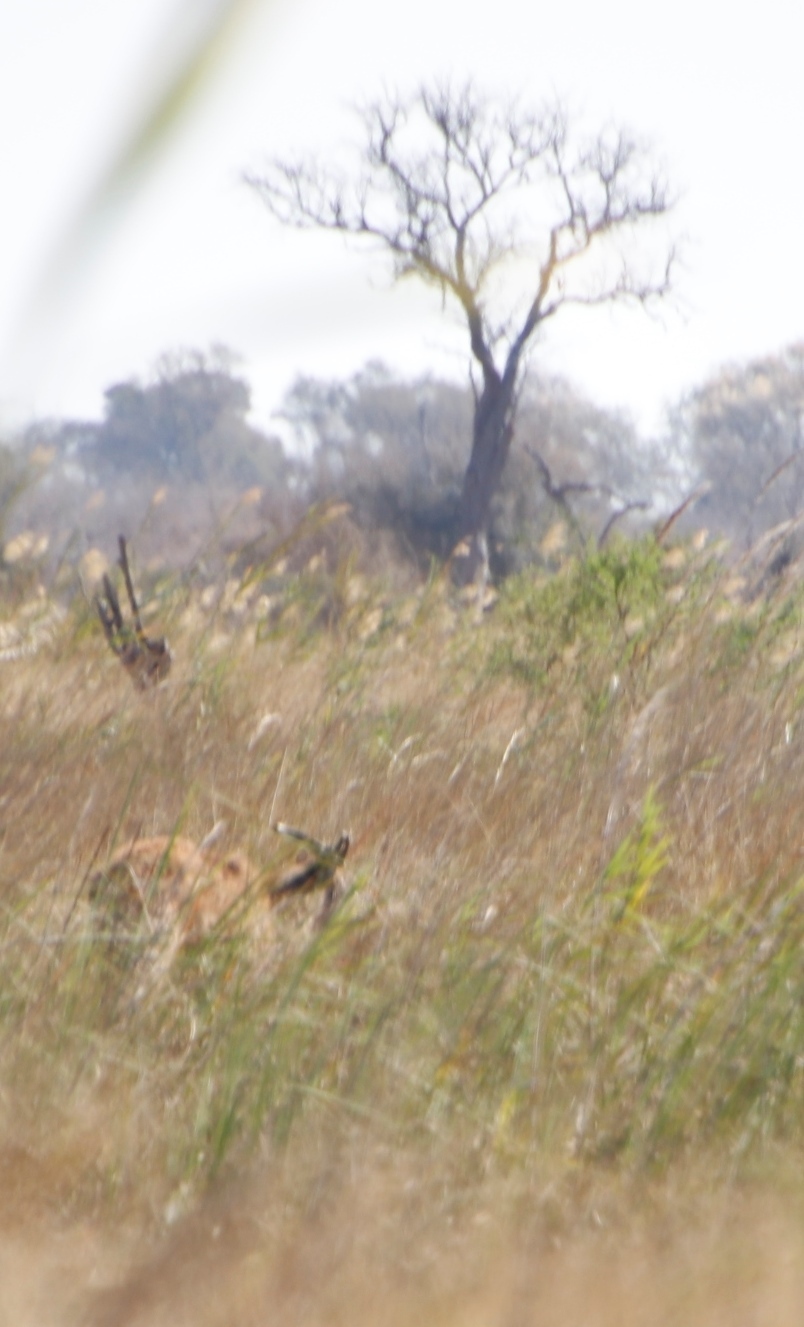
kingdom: Animalia
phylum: Chordata
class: Mammalia
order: Artiodactyla
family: Bovidae
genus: Tragelaphus
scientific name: Tragelaphus spekii
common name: Sitatunga
